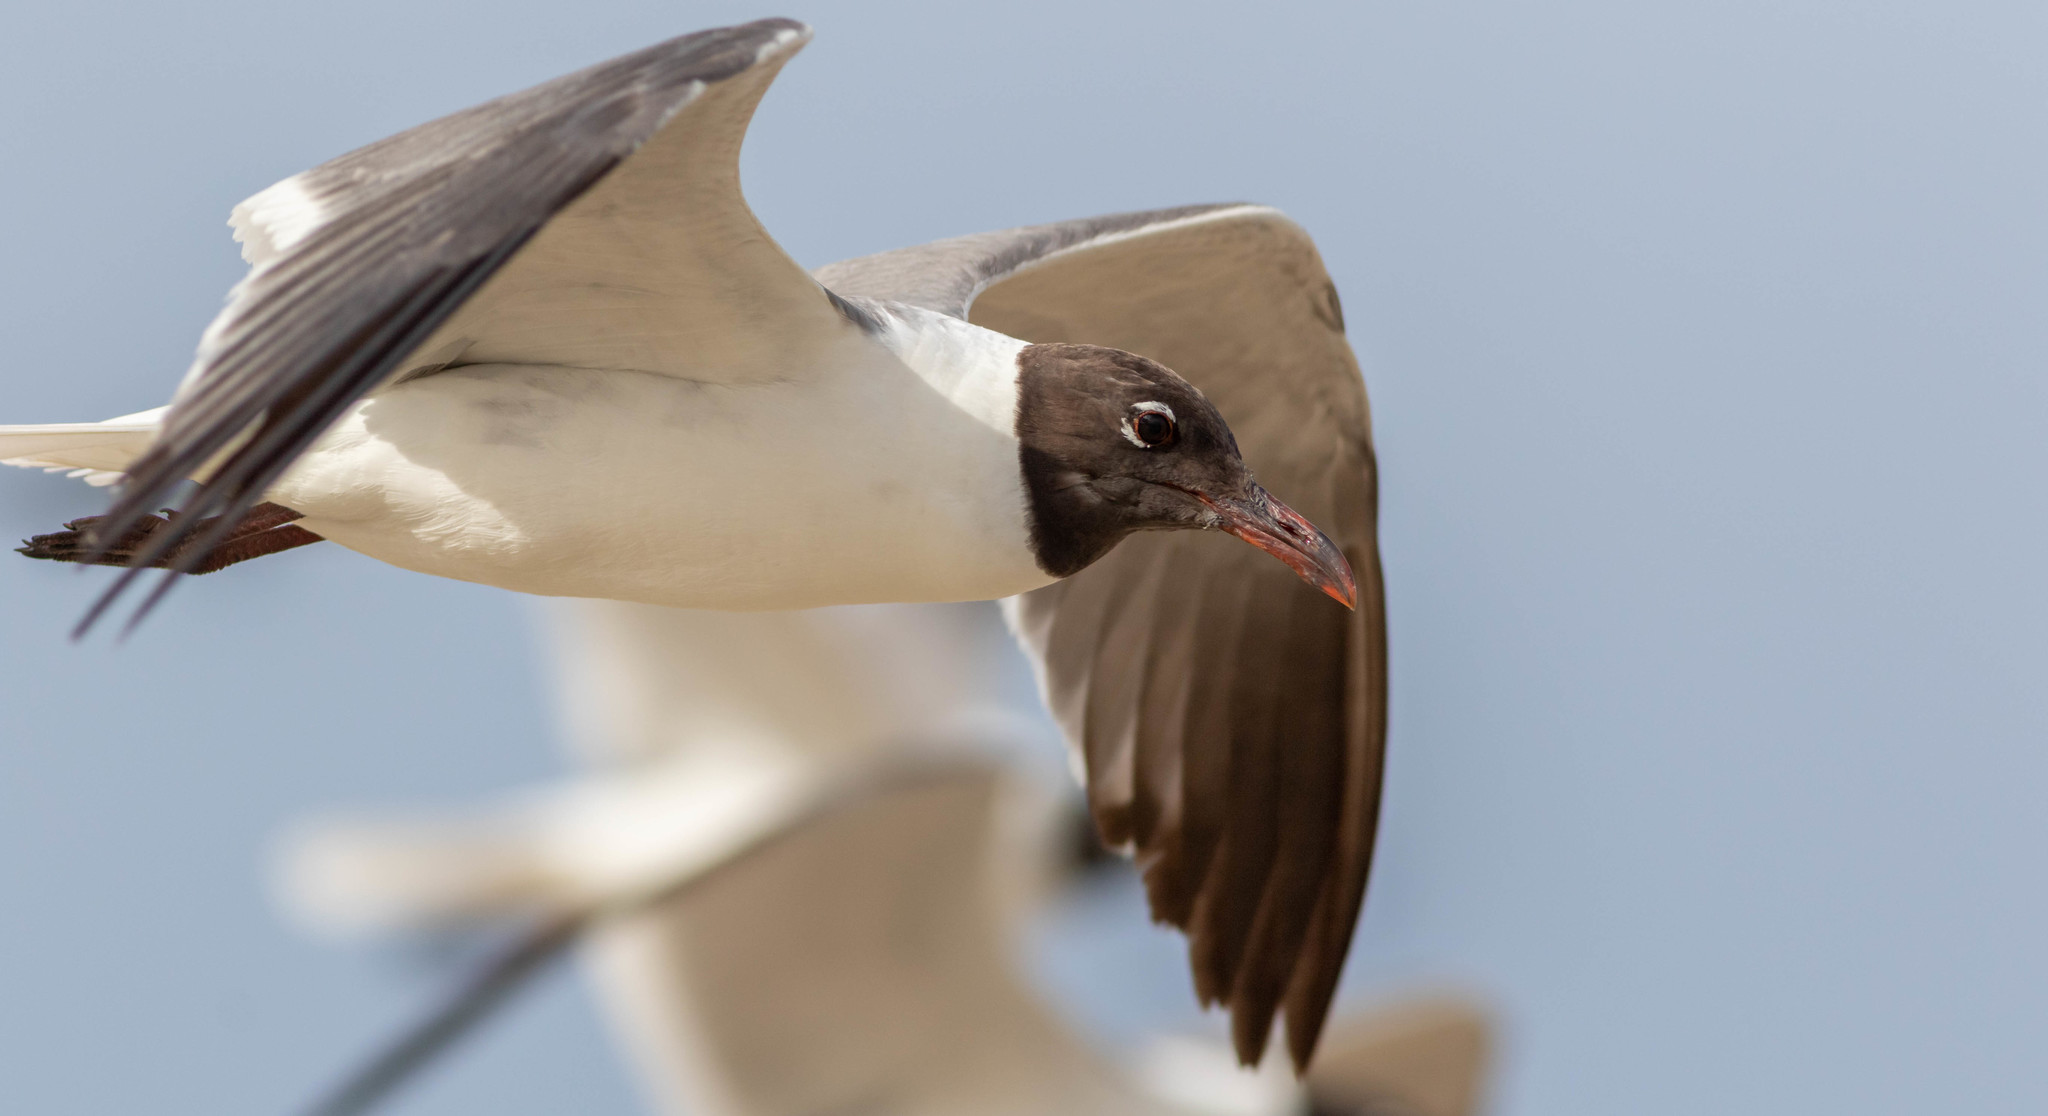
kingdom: Animalia
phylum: Chordata
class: Aves
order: Charadriiformes
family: Laridae
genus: Leucophaeus
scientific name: Leucophaeus atricilla
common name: Laughing gull
